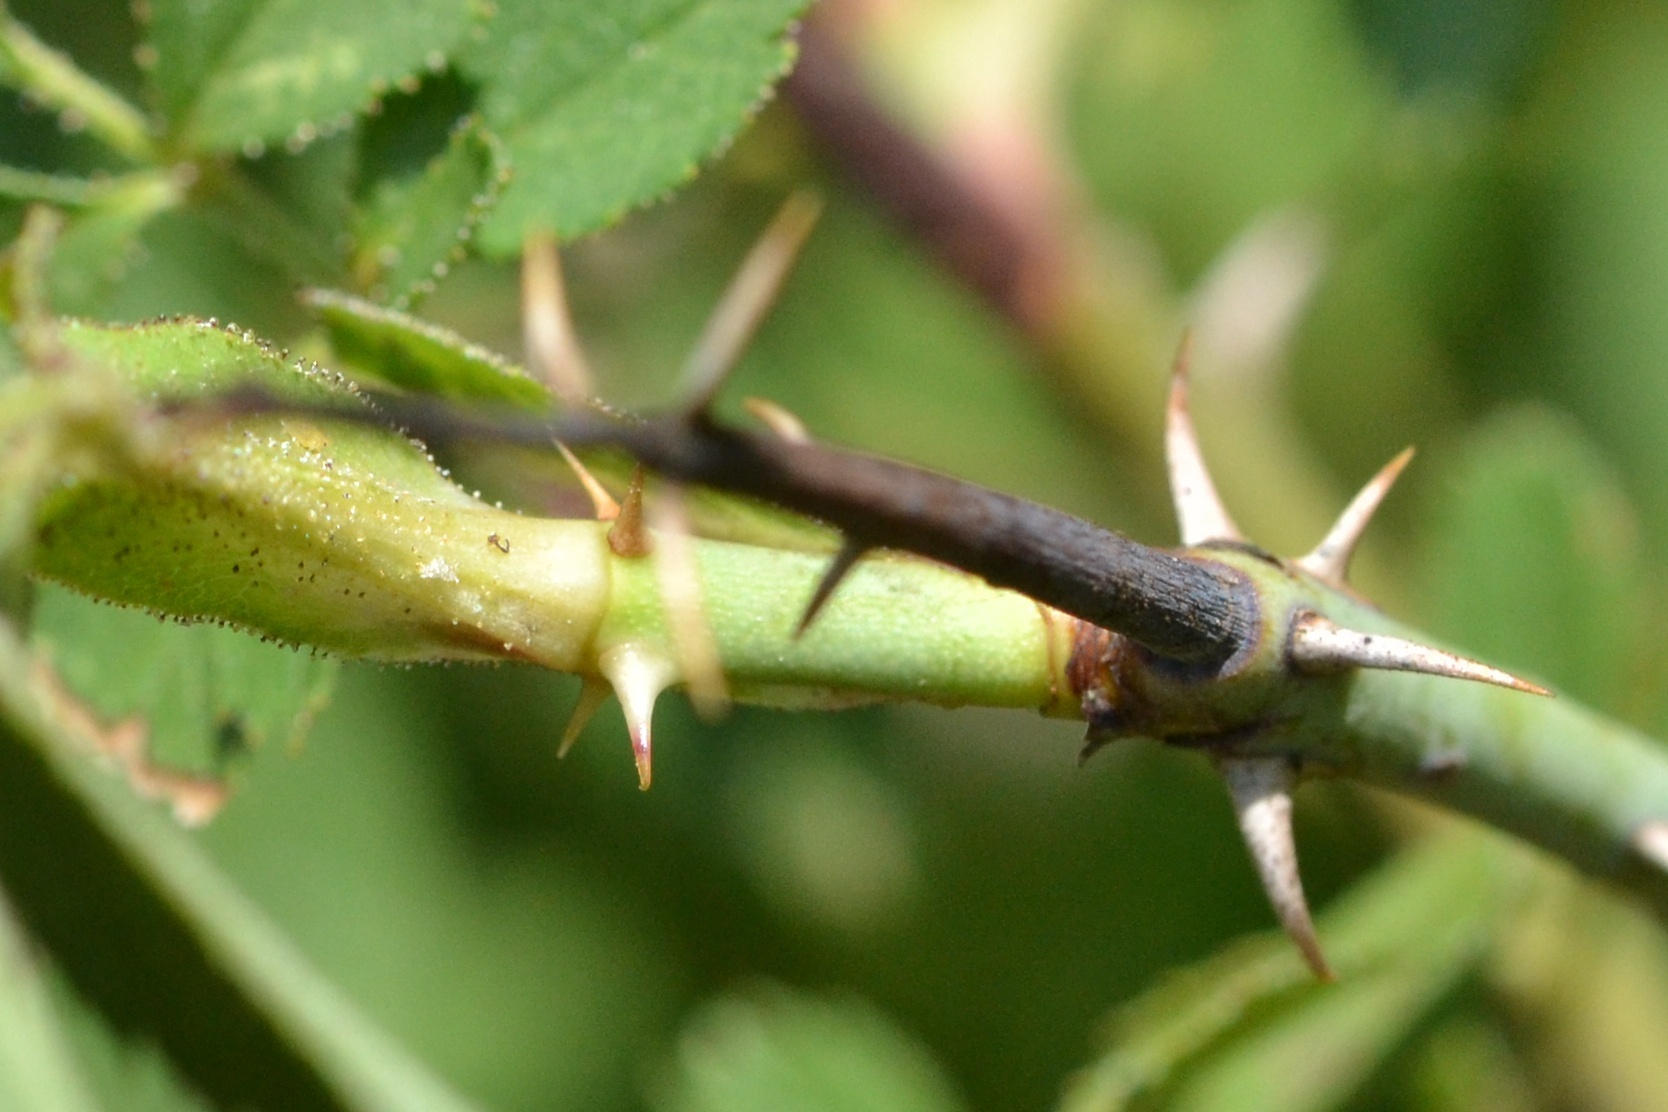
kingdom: Plantae
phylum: Tracheophyta
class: Magnoliopsida
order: Rosales
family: Rosaceae
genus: Rosa
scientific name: Rosa inodora
